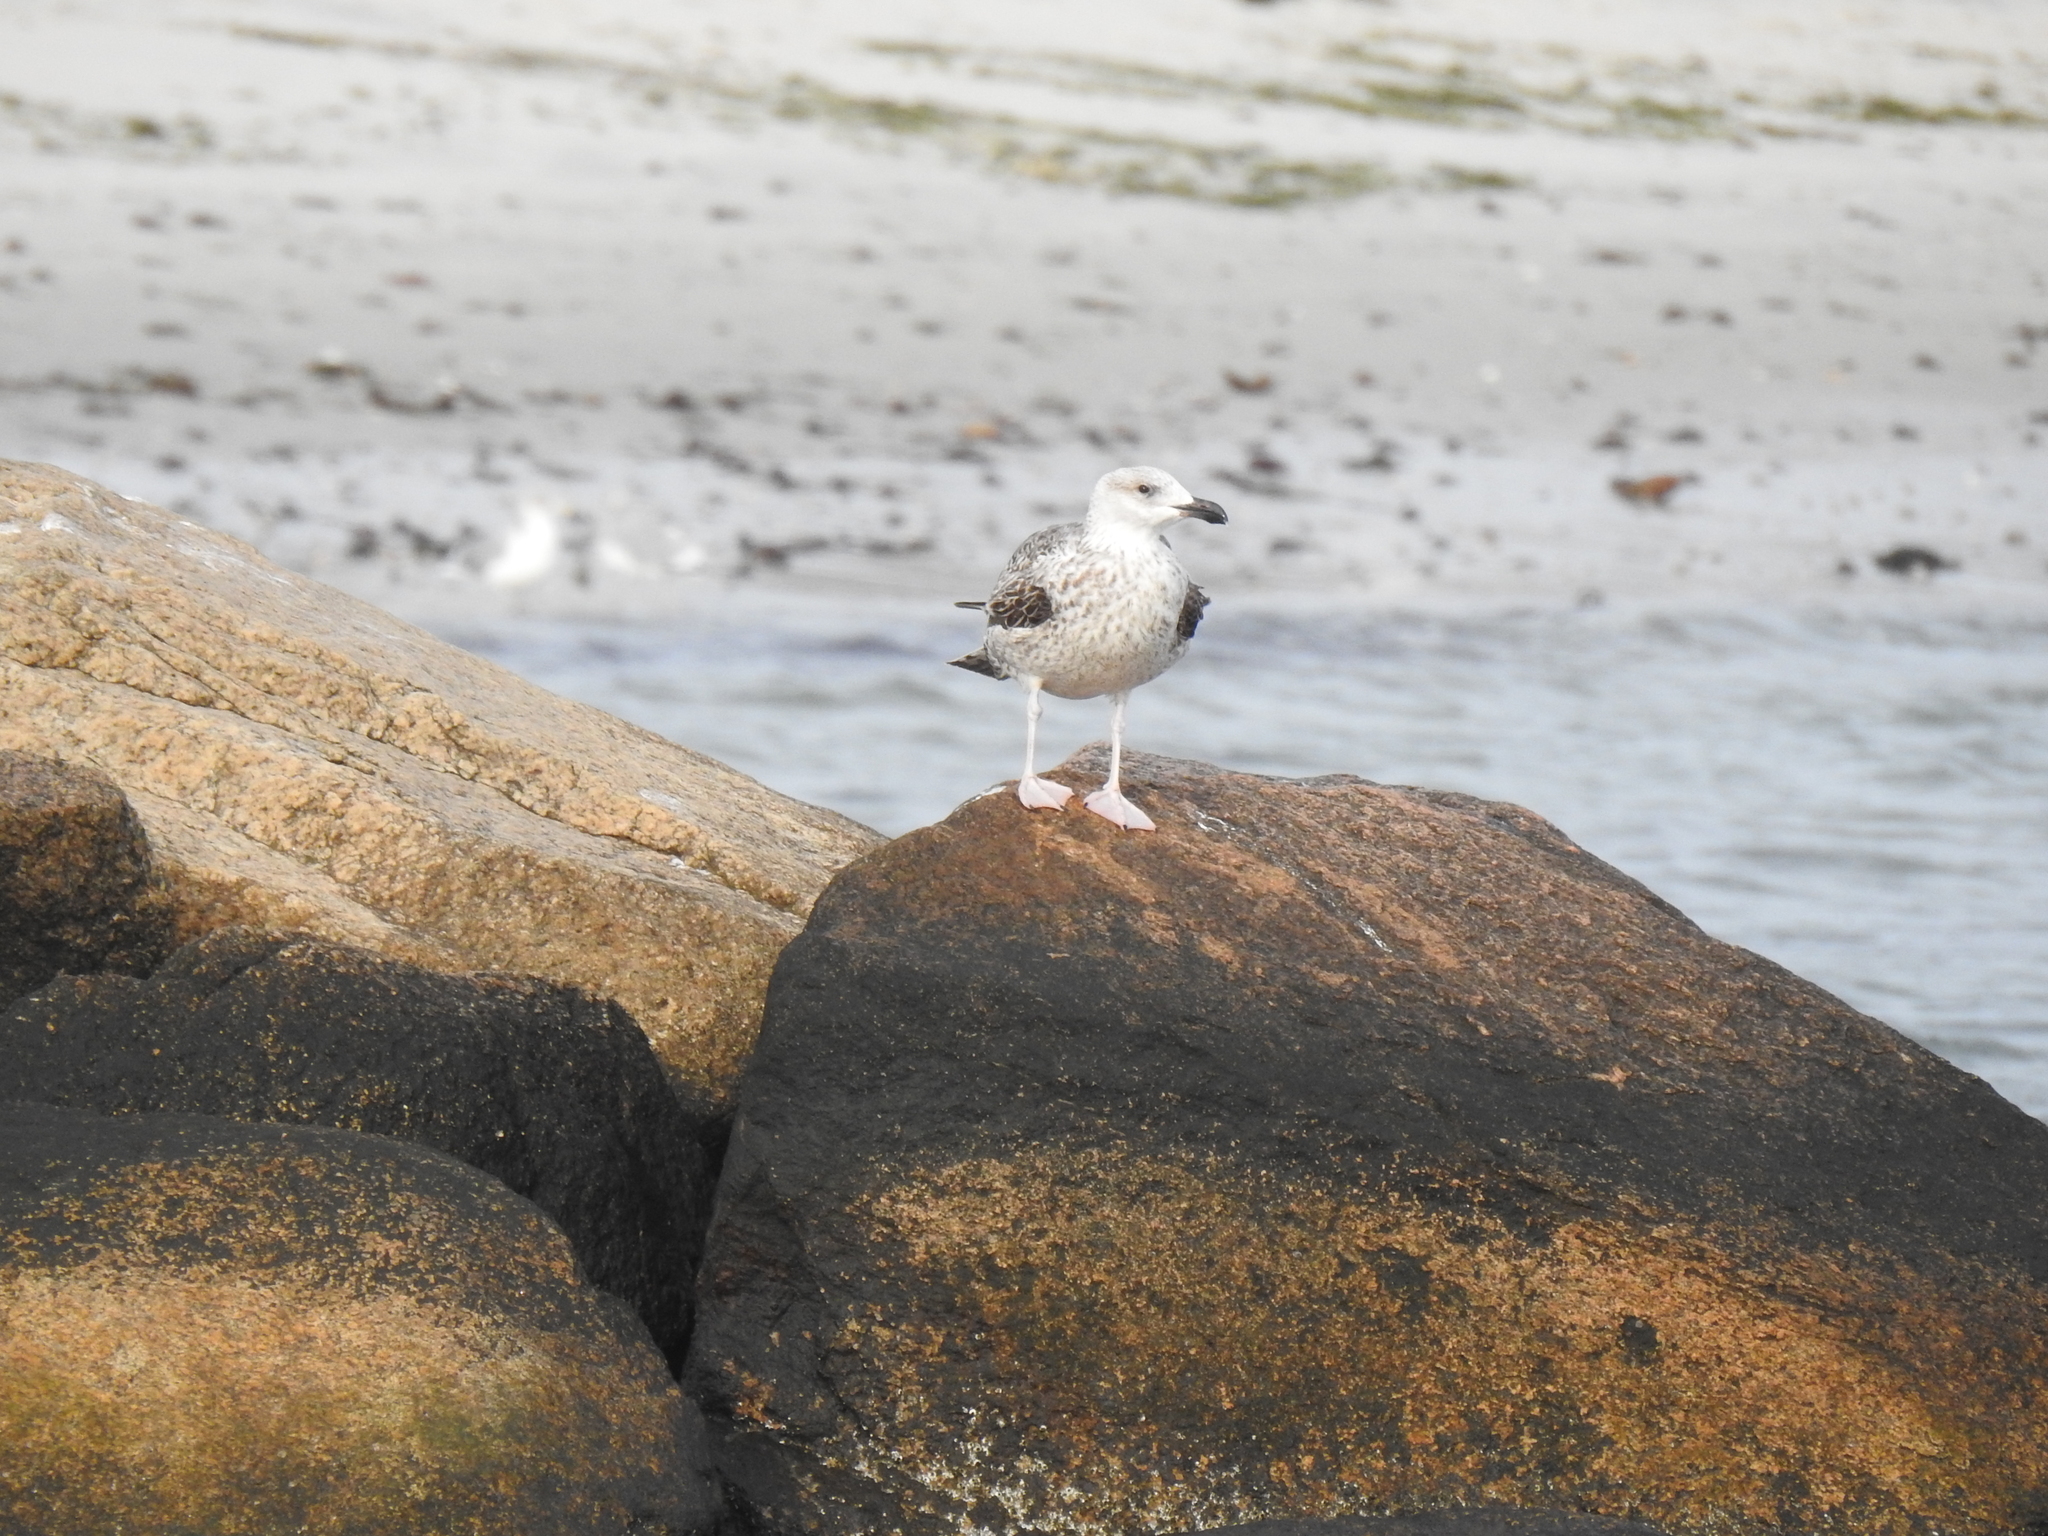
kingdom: Animalia
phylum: Chordata
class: Aves
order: Charadriiformes
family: Laridae
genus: Larus
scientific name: Larus marinus
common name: Great black-backed gull
